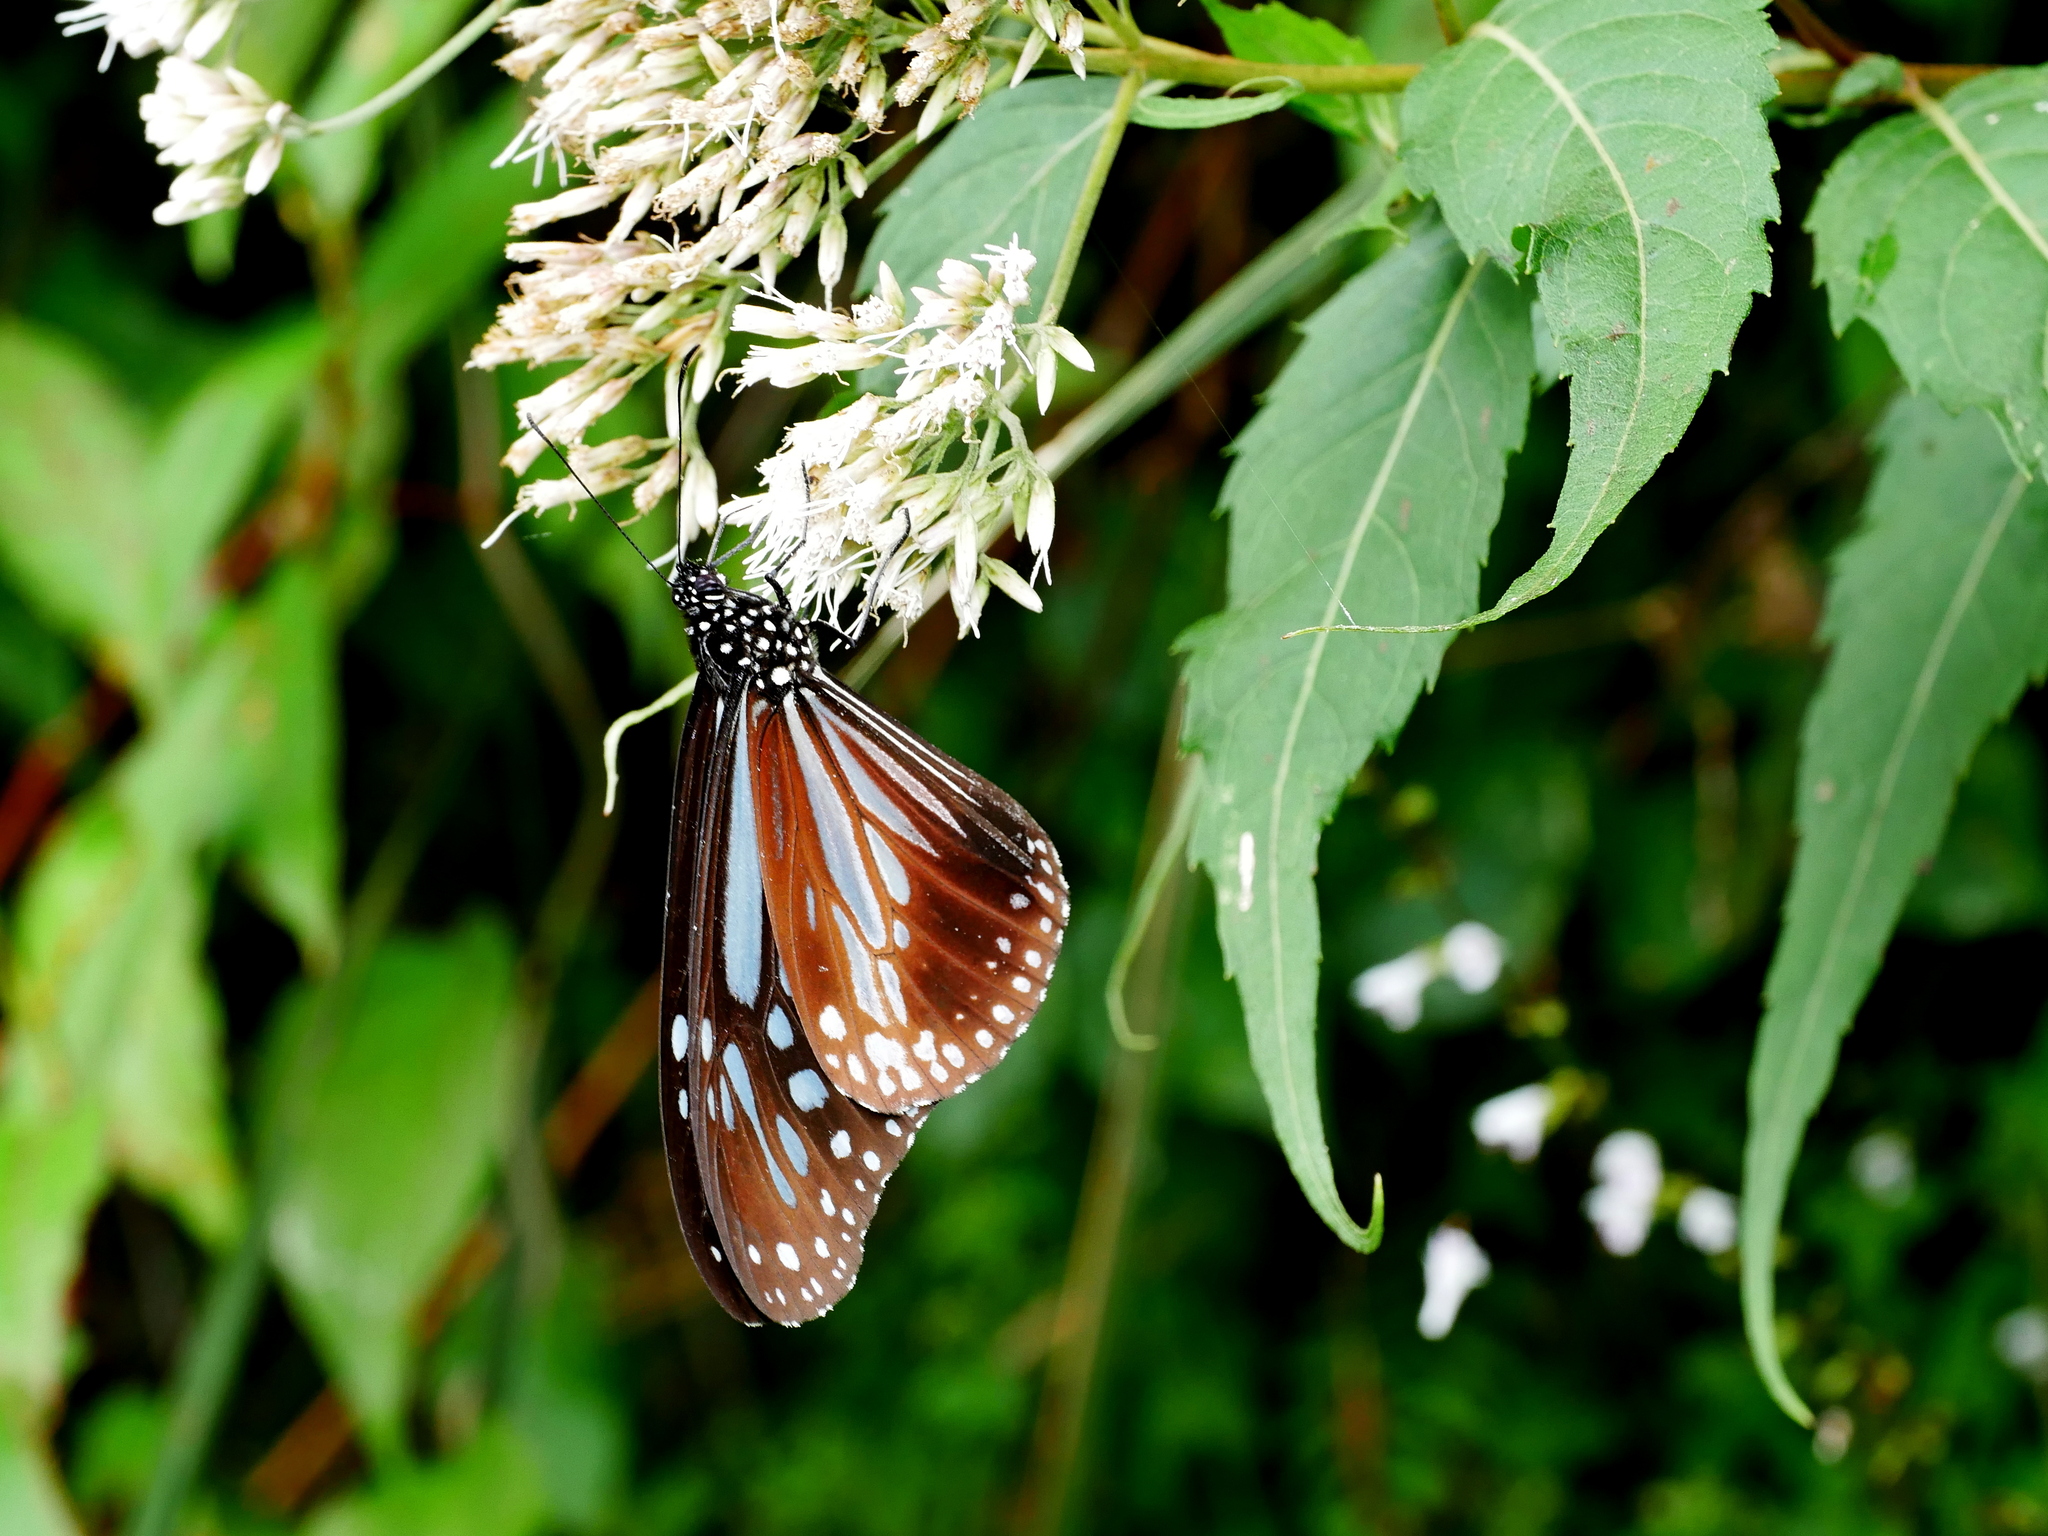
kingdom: Animalia
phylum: Arthropoda
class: Insecta
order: Lepidoptera
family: Nymphalidae
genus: Parantica
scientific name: Parantica melaneus
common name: Chocolate tiger
